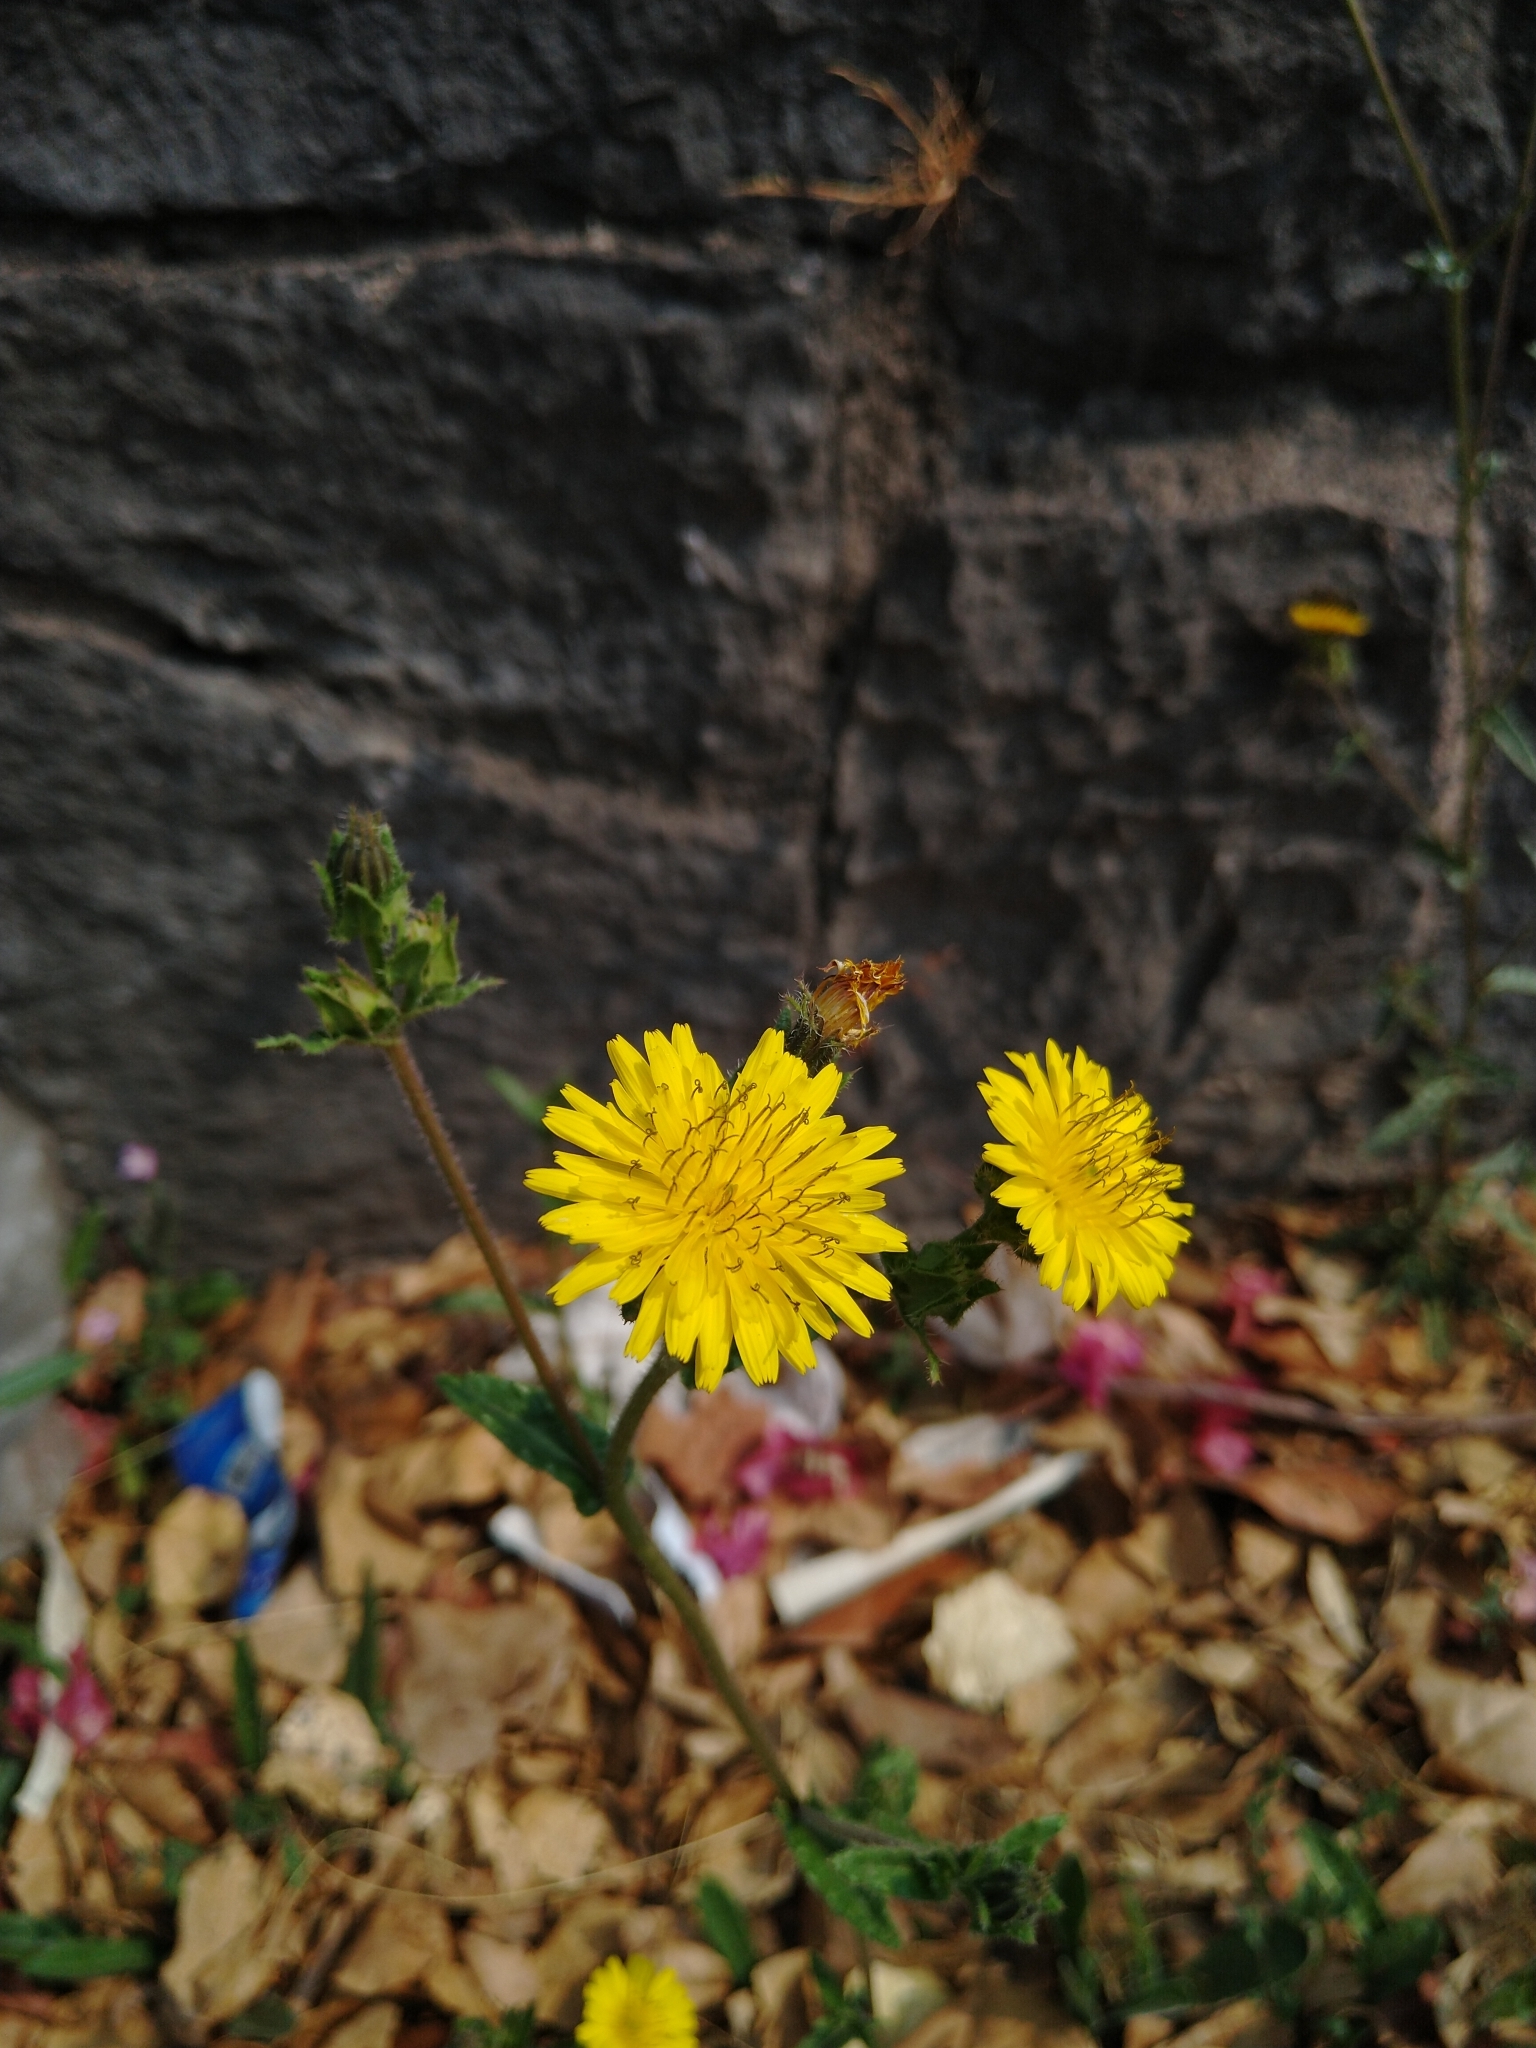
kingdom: Plantae
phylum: Tracheophyta
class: Magnoliopsida
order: Asterales
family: Asteraceae
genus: Helminthotheca
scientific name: Helminthotheca echioides
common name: Ox-tongue
